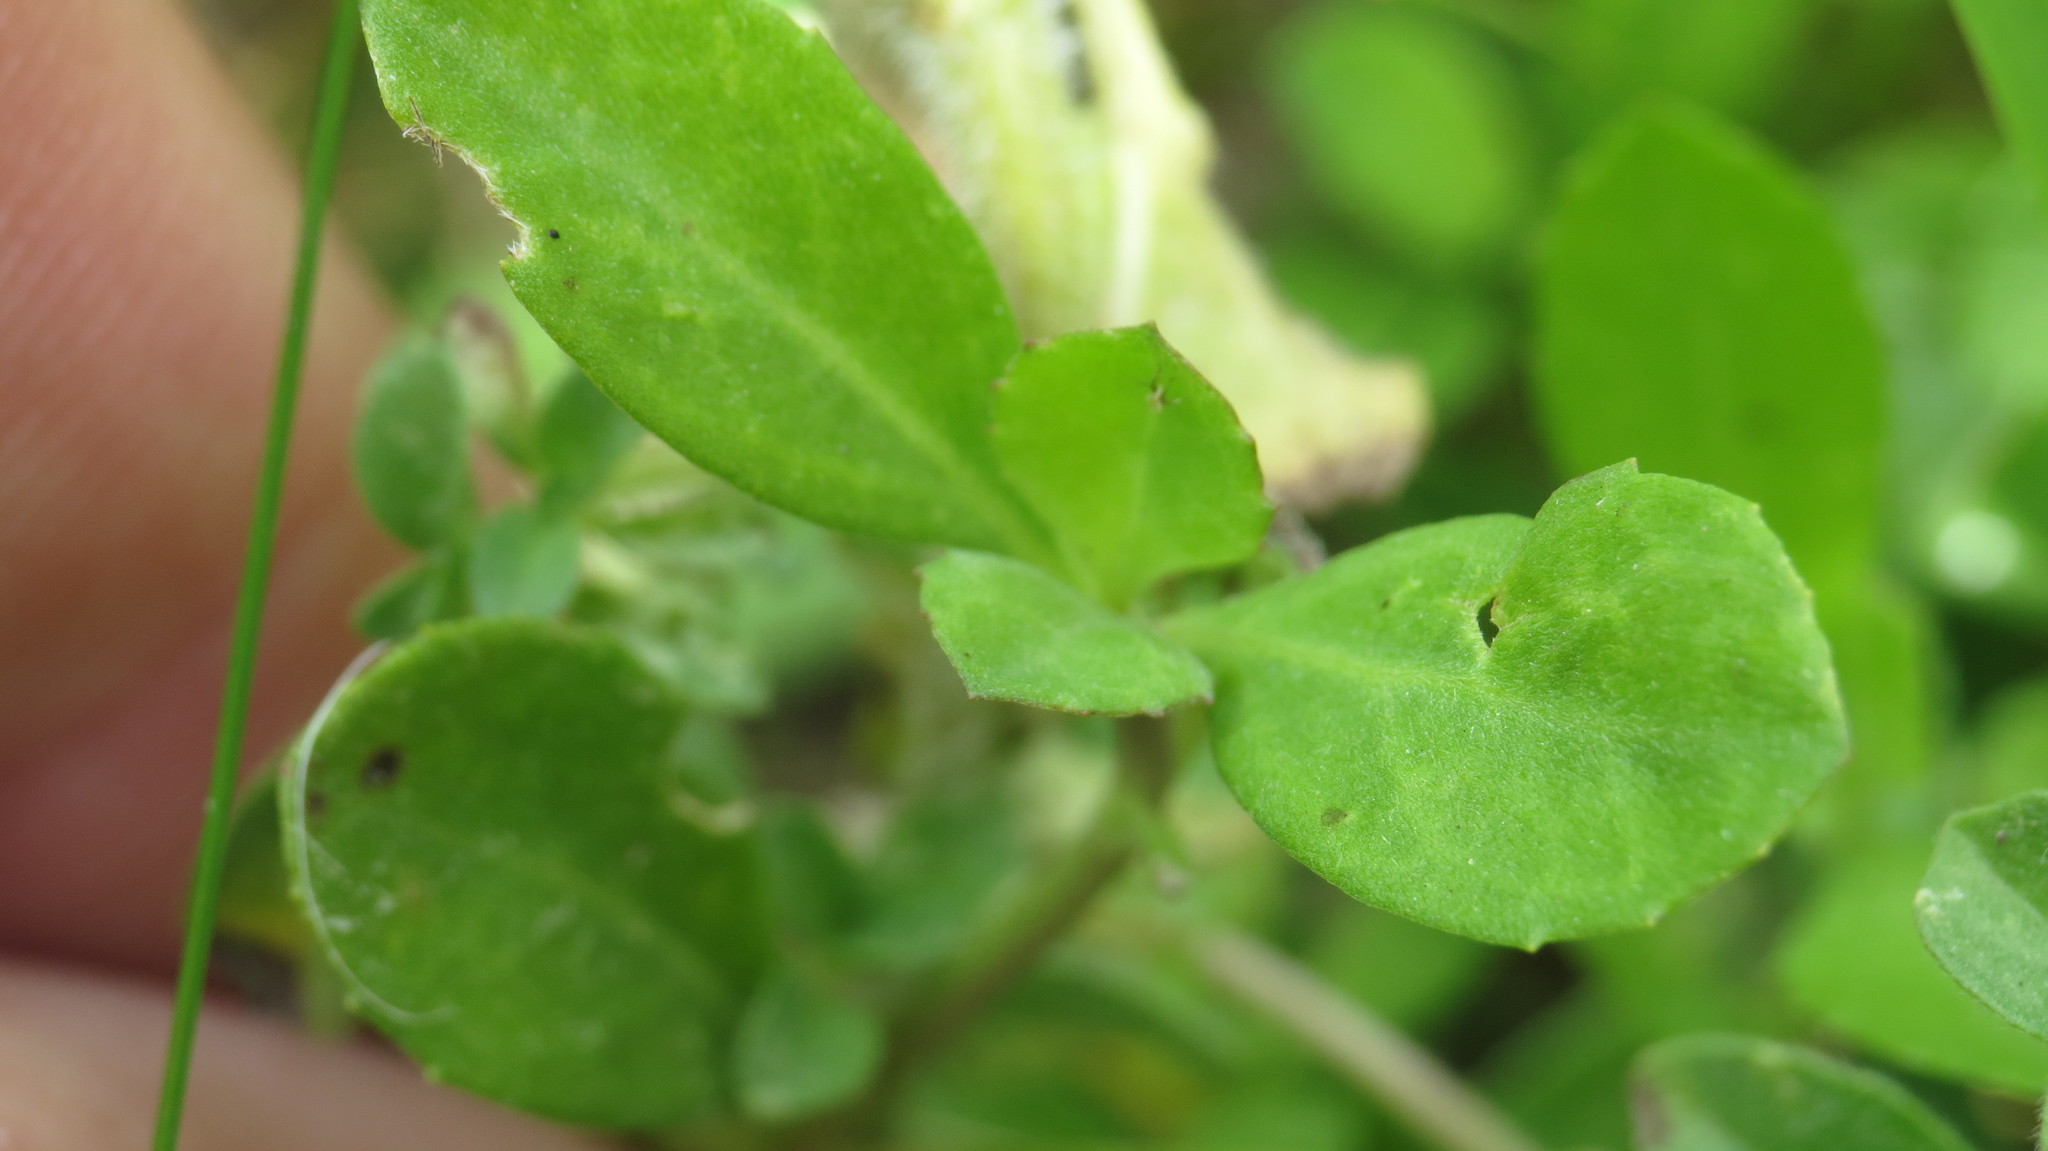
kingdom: Plantae
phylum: Tracheophyta
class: Magnoliopsida
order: Lamiales
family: Verbenaceae
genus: Phyla
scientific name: Phyla nodiflora
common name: Frogfruit
